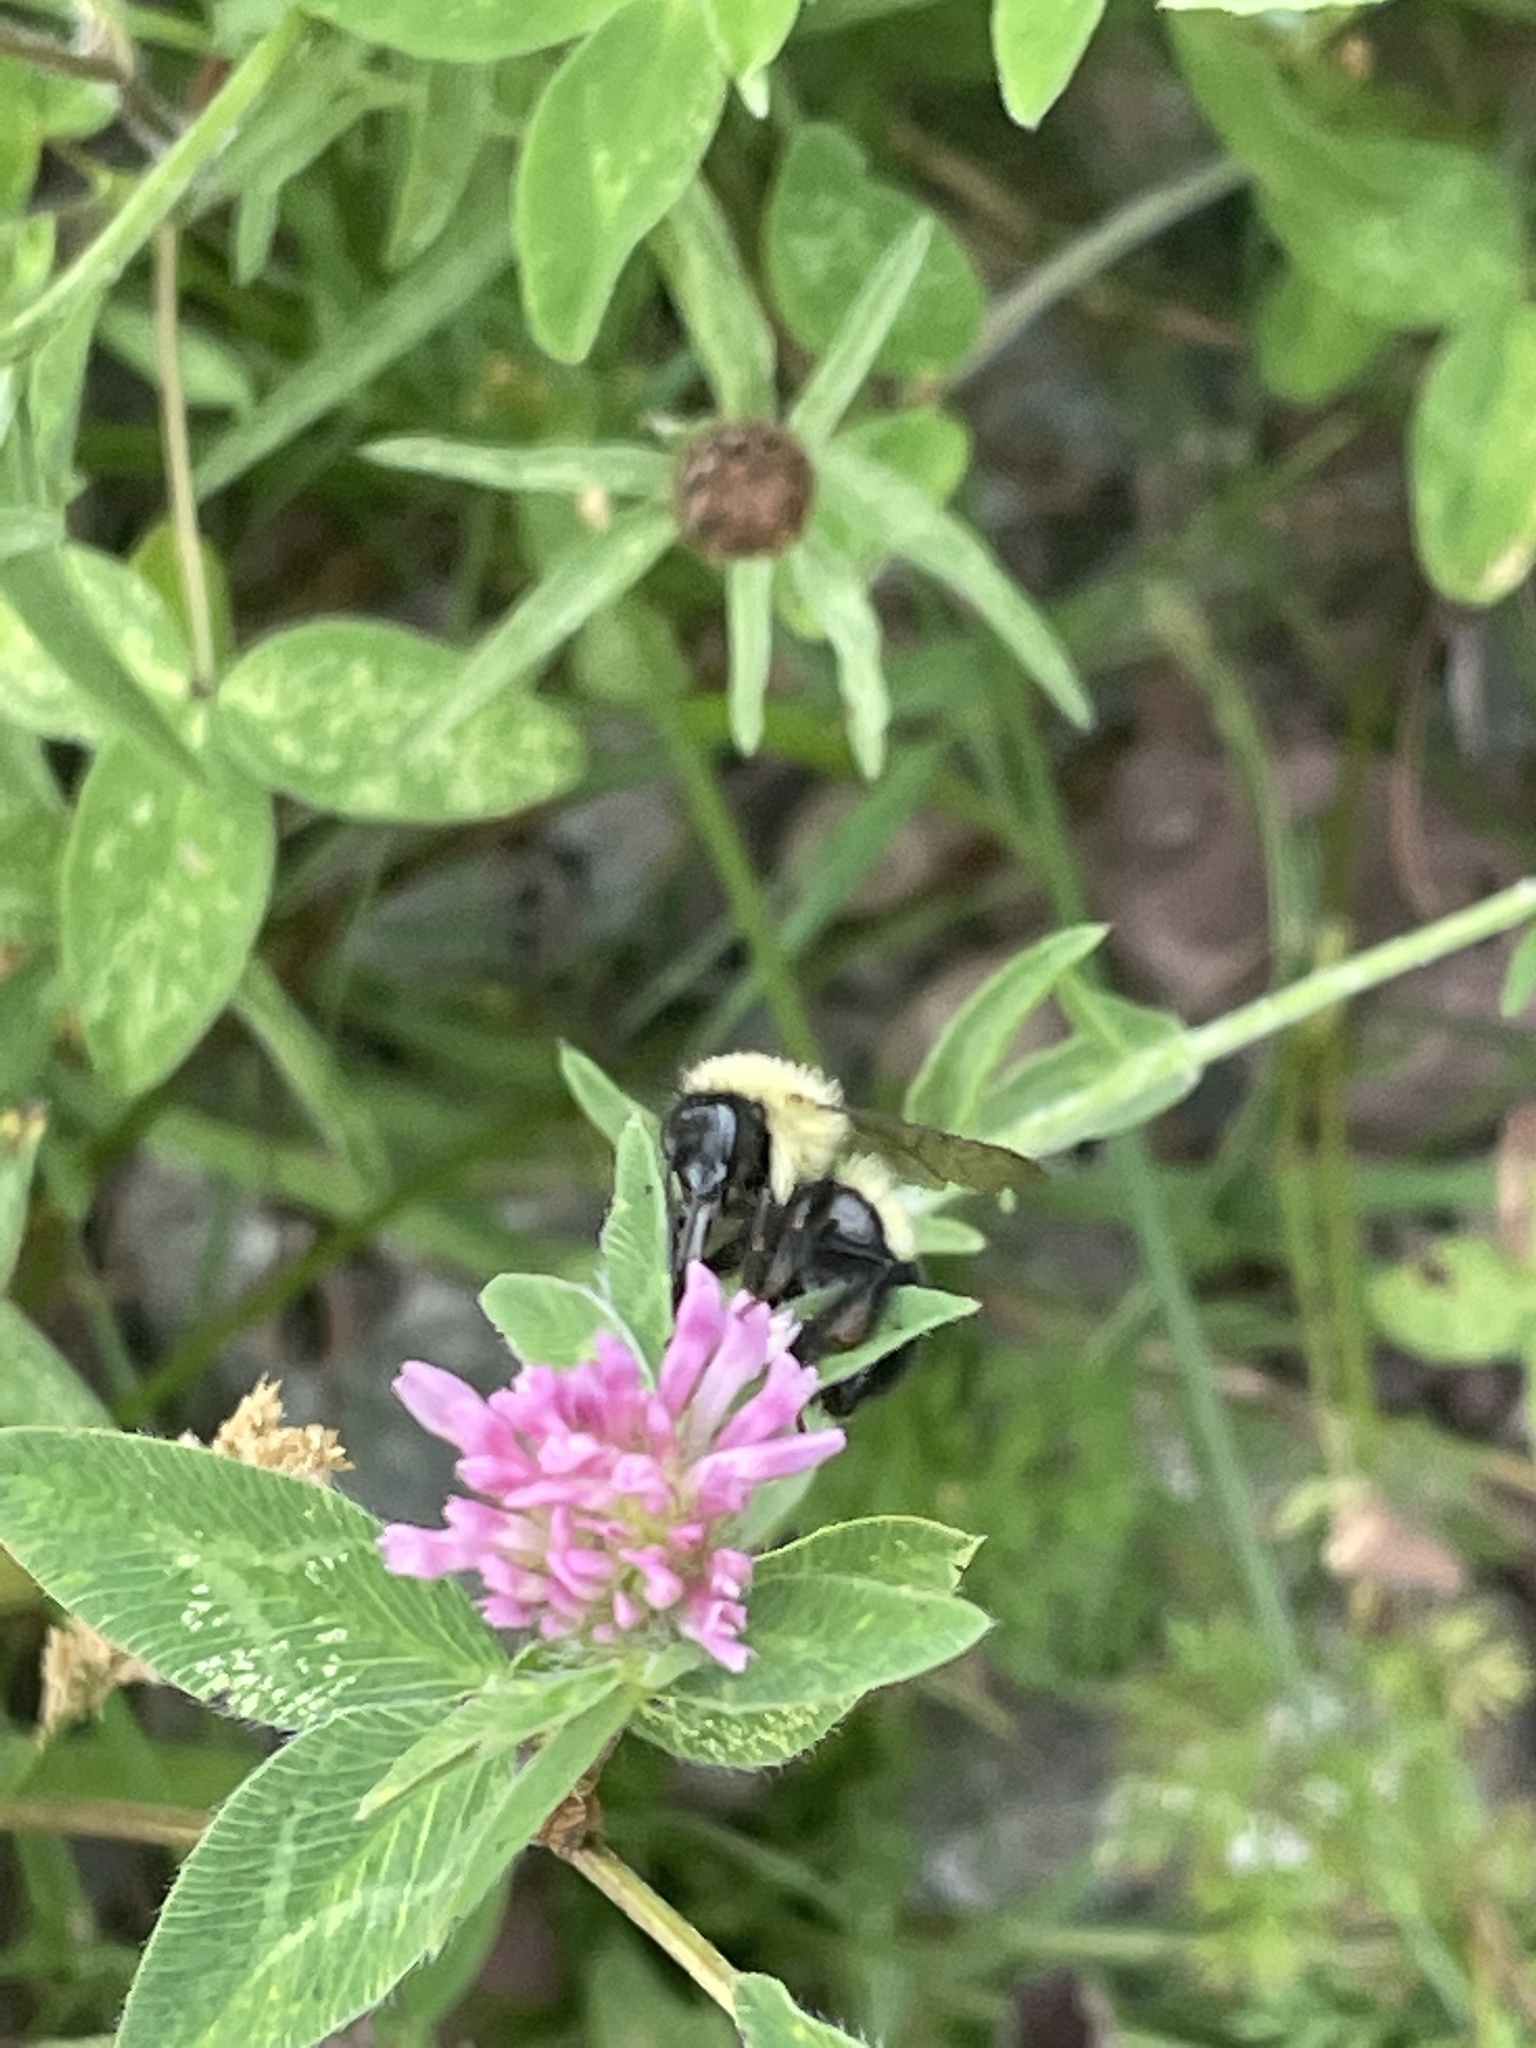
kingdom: Animalia
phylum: Arthropoda
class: Insecta
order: Hymenoptera
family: Apidae
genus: Bombus
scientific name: Bombus vagans
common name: Half-black bumble bee
